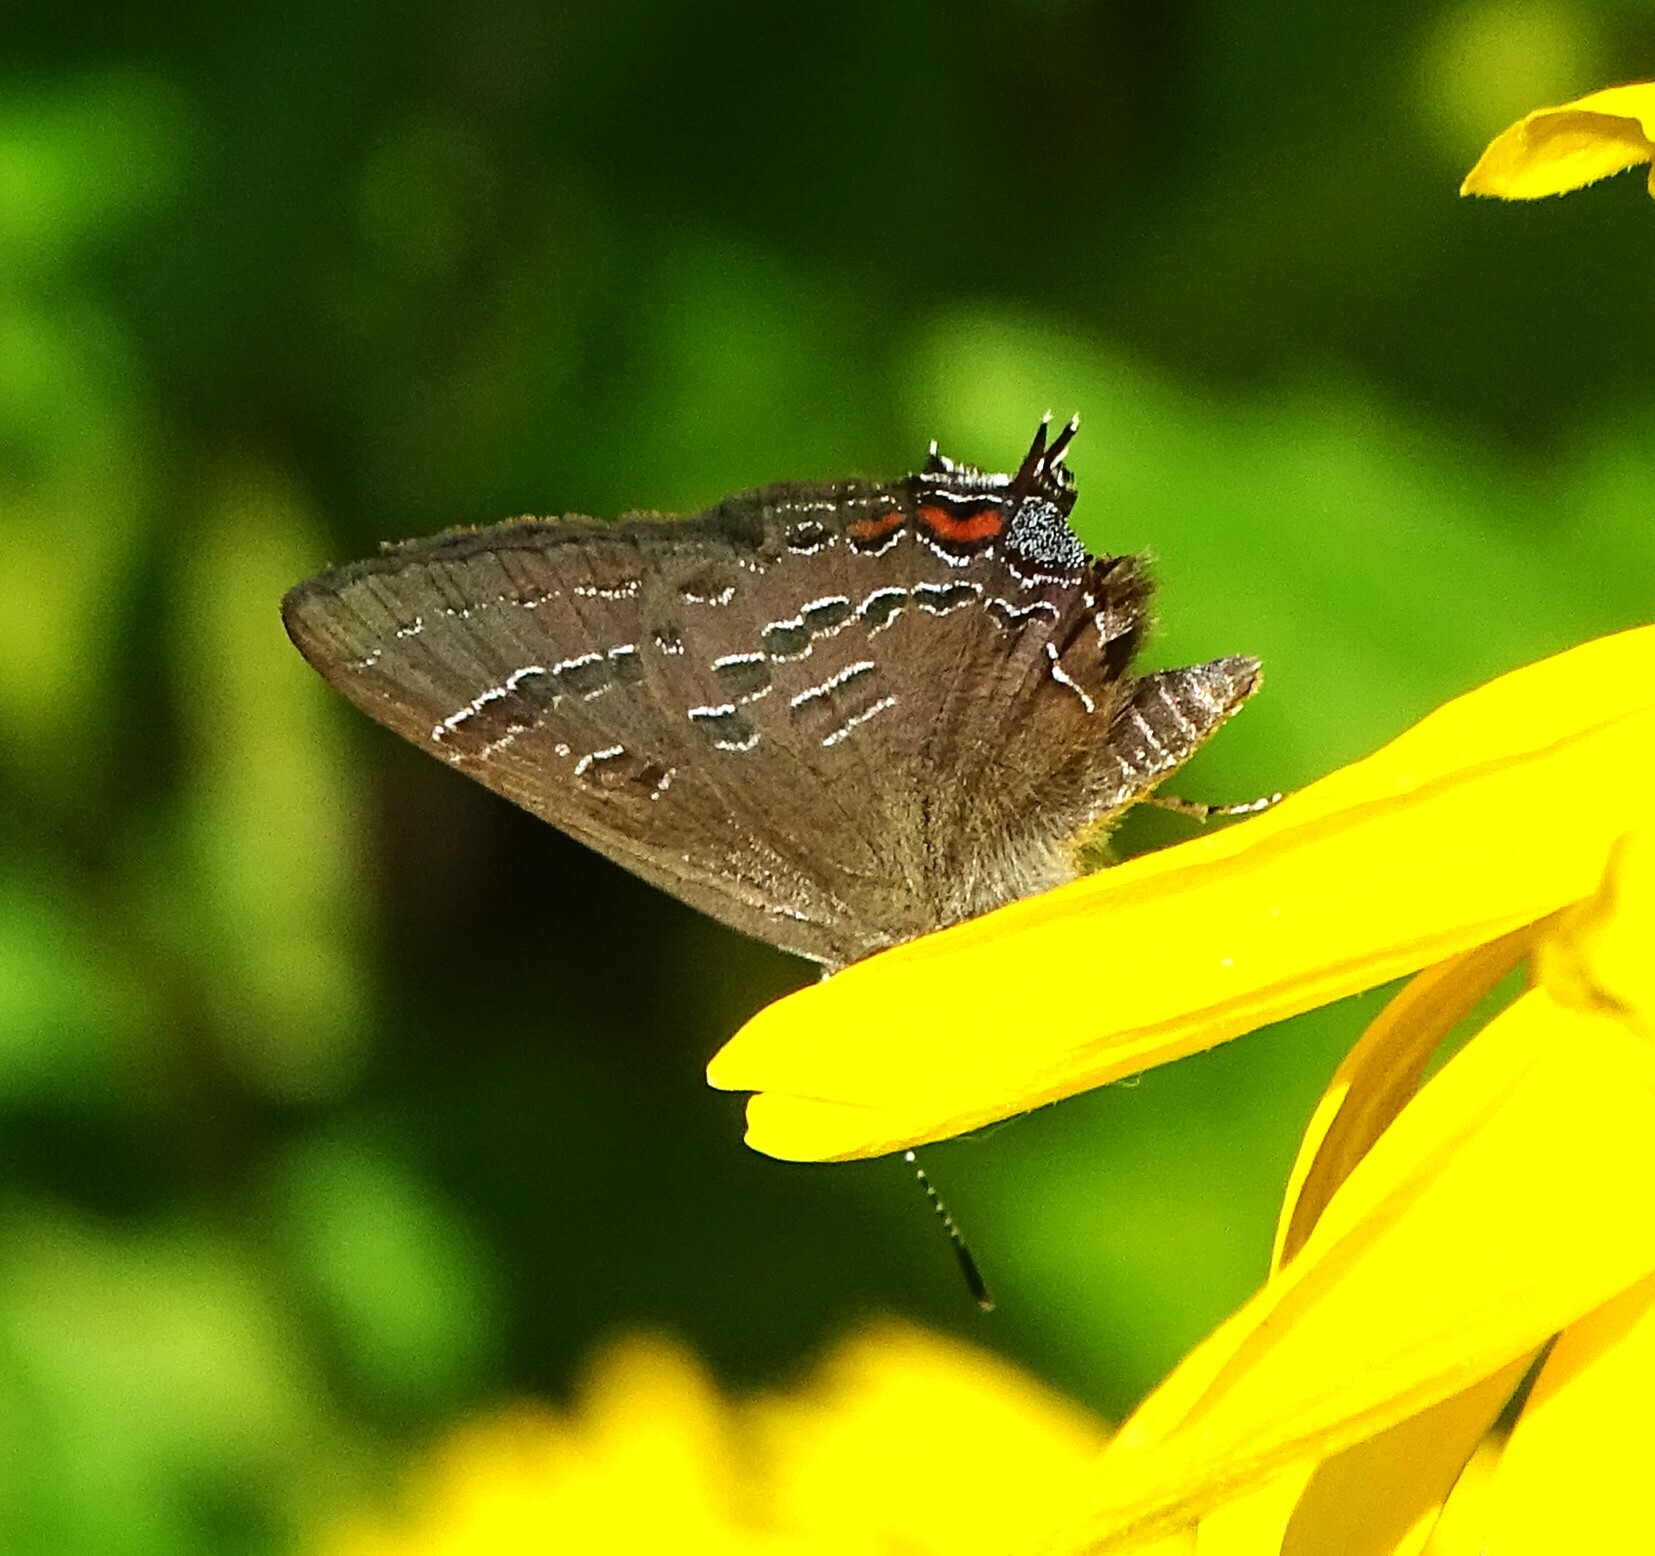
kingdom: Animalia
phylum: Arthropoda
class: Insecta
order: Lepidoptera
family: Lycaenidae
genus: Satyrium
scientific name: Satyrium calanus
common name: Banded hairstreak
